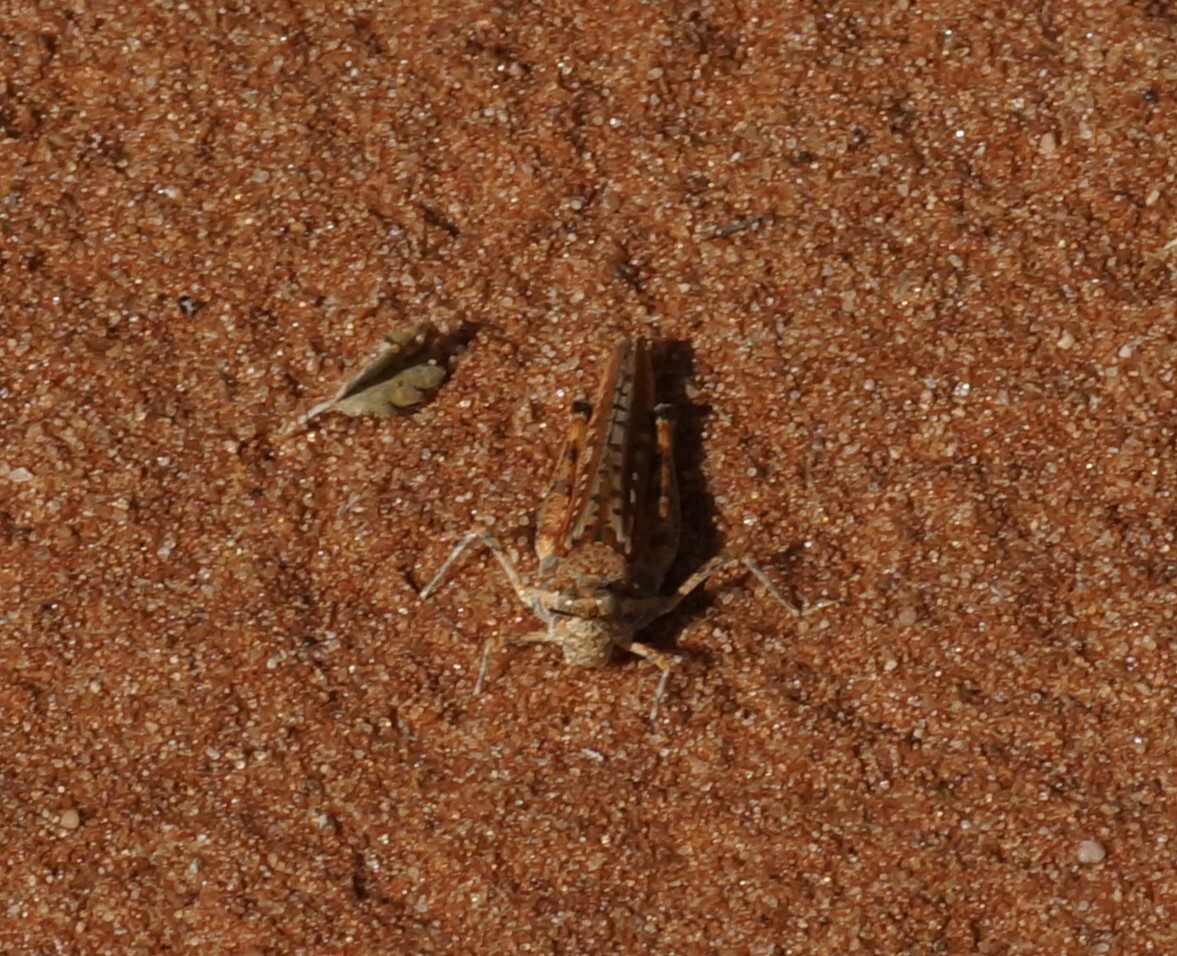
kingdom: Animalia
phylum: Arthropoda
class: Insecta
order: Orthoptera
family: Acrididae
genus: Urnisa
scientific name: Urnisa guttulosa
